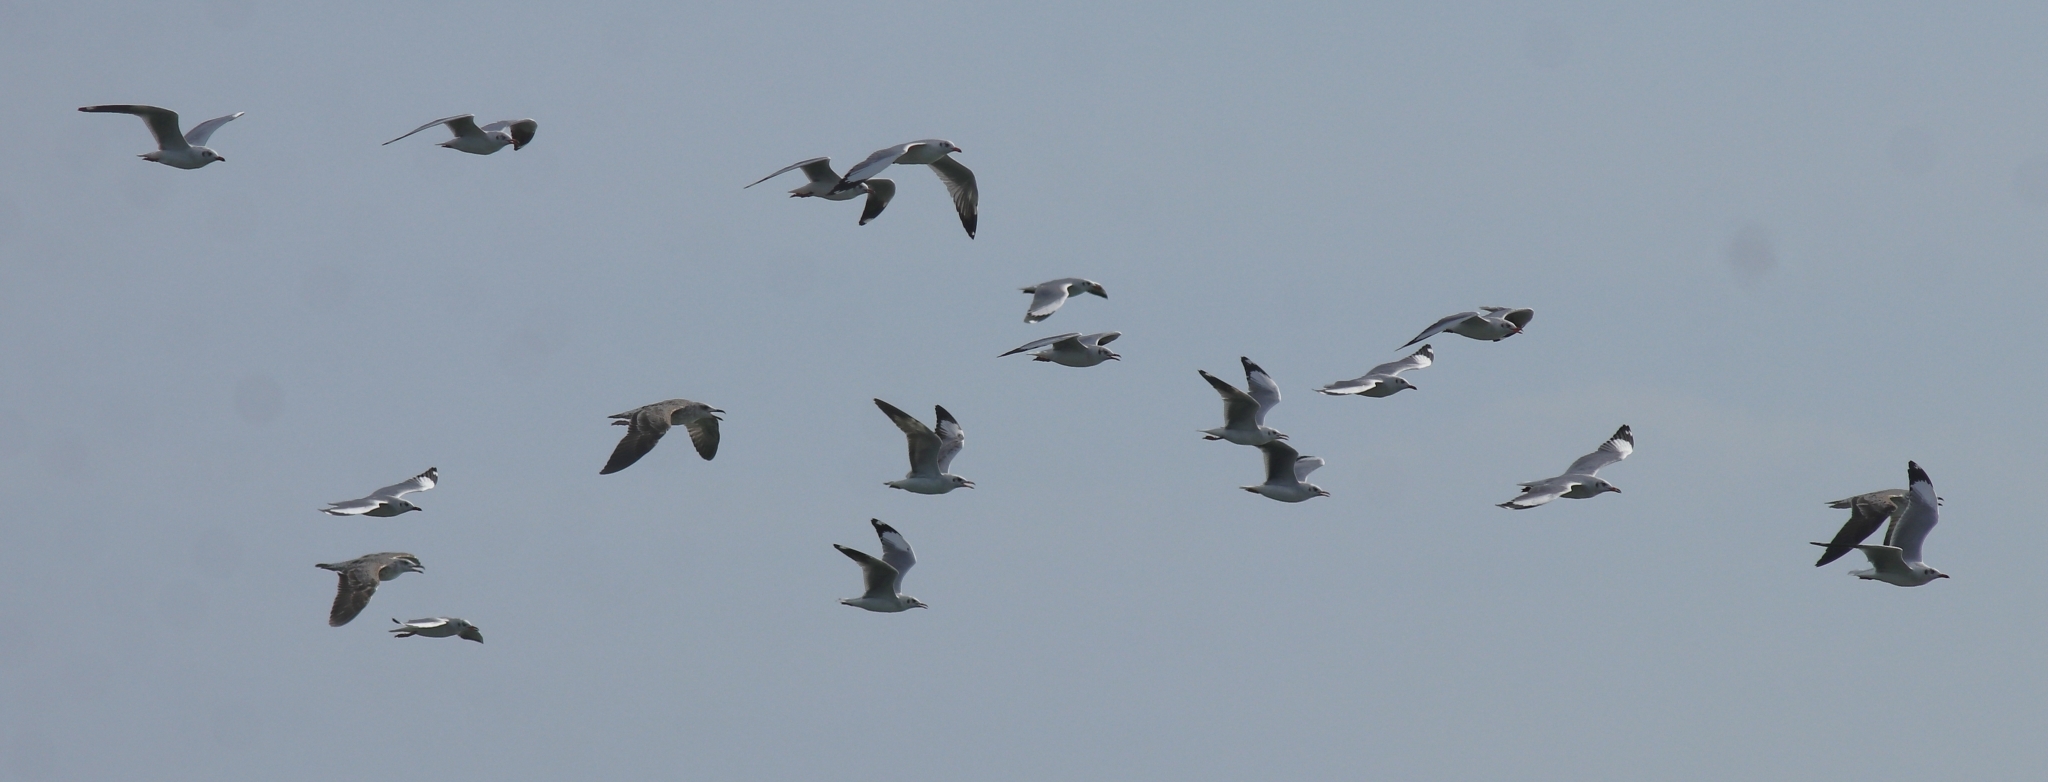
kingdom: Animalia
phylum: Chordata
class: Aves
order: Charadriiformes
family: Laridae
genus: Chroicocephalus
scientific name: Chroicocephalus brunnicephalus
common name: Brown-headed gull
